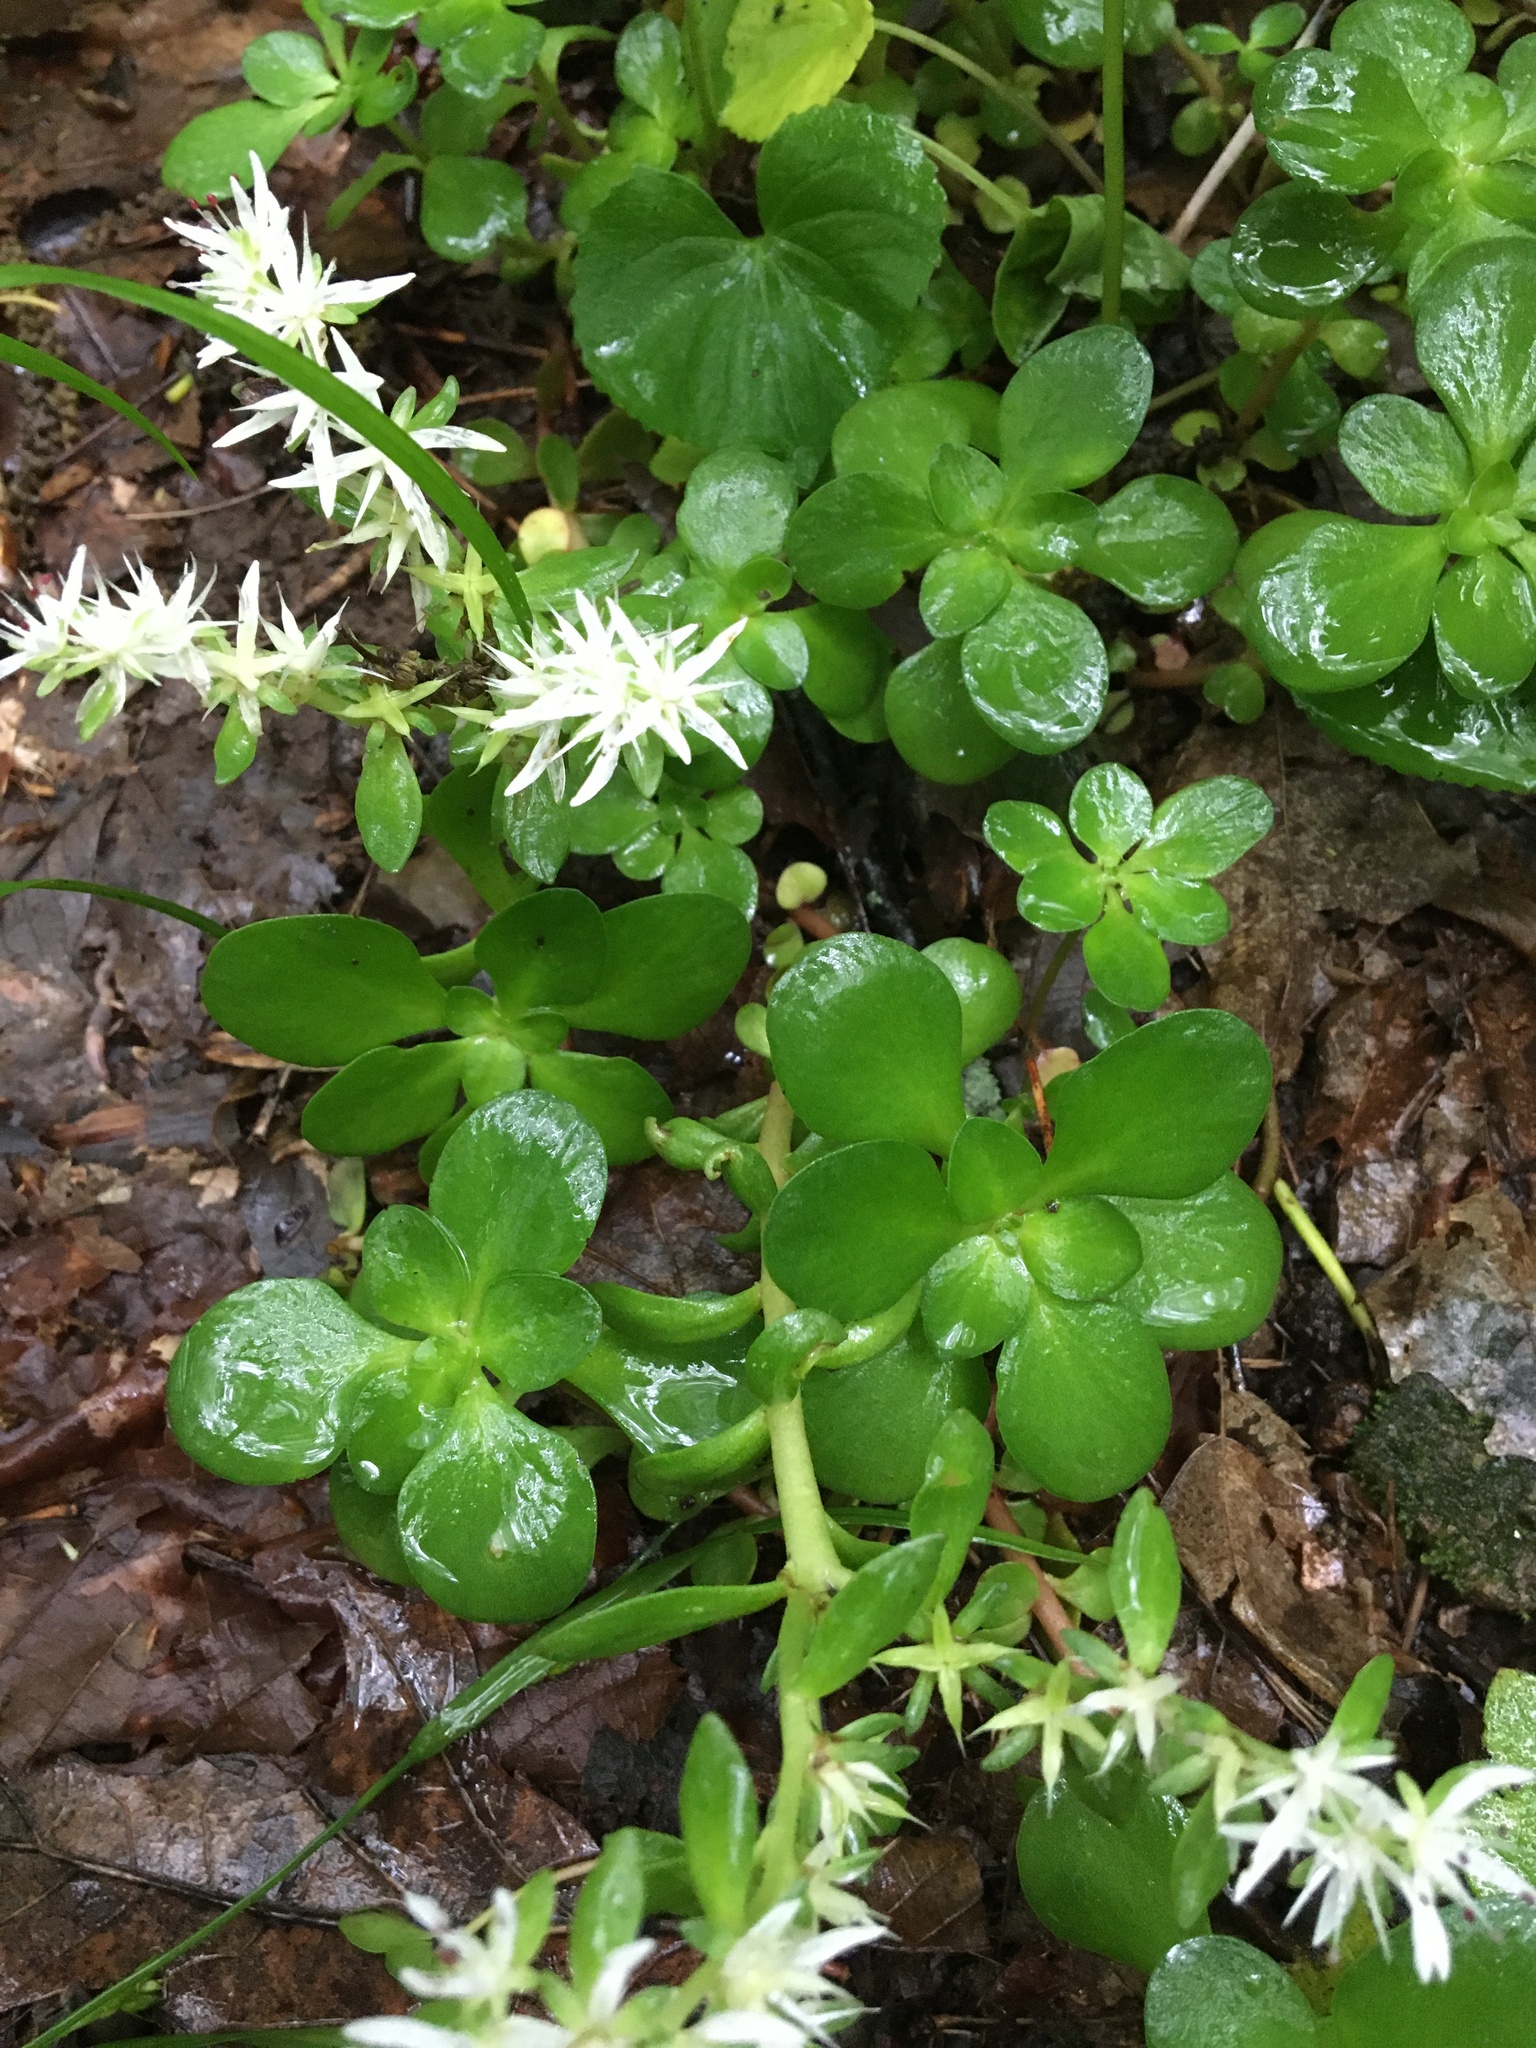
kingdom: Plantae
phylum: Tracheophyta
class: Magnoliopsida
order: Saxifragales
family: Crassulaceae
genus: Sedum
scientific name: Sedum ternatum
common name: Wild stonecrop
